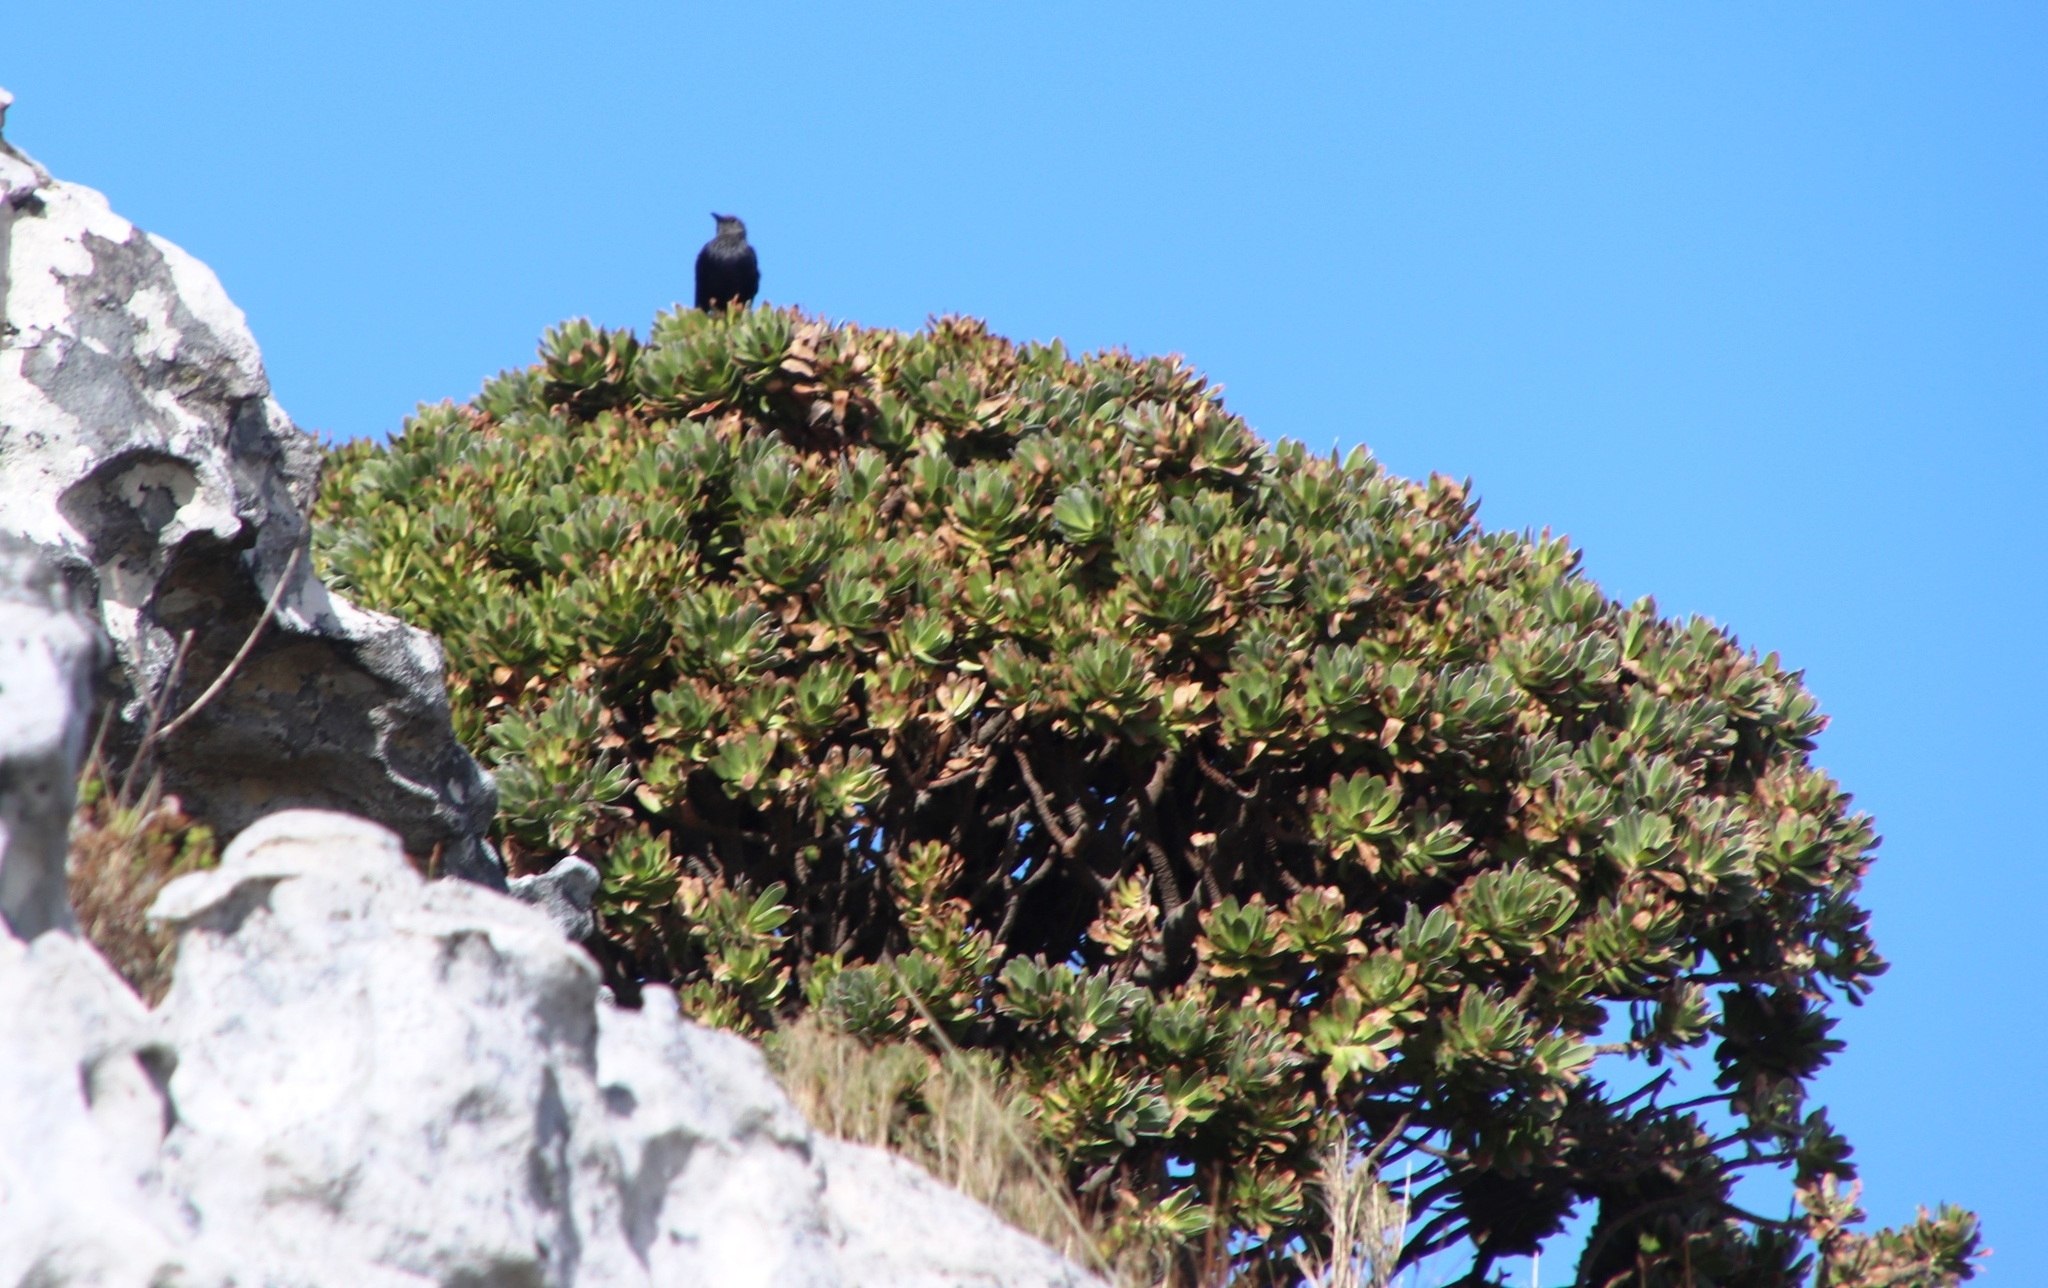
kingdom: Animalia
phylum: Chordata
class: Aves
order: Passeriformes
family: Sturnidae
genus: Onychognathus
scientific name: Onychognathus morio
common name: Red-winged starling
